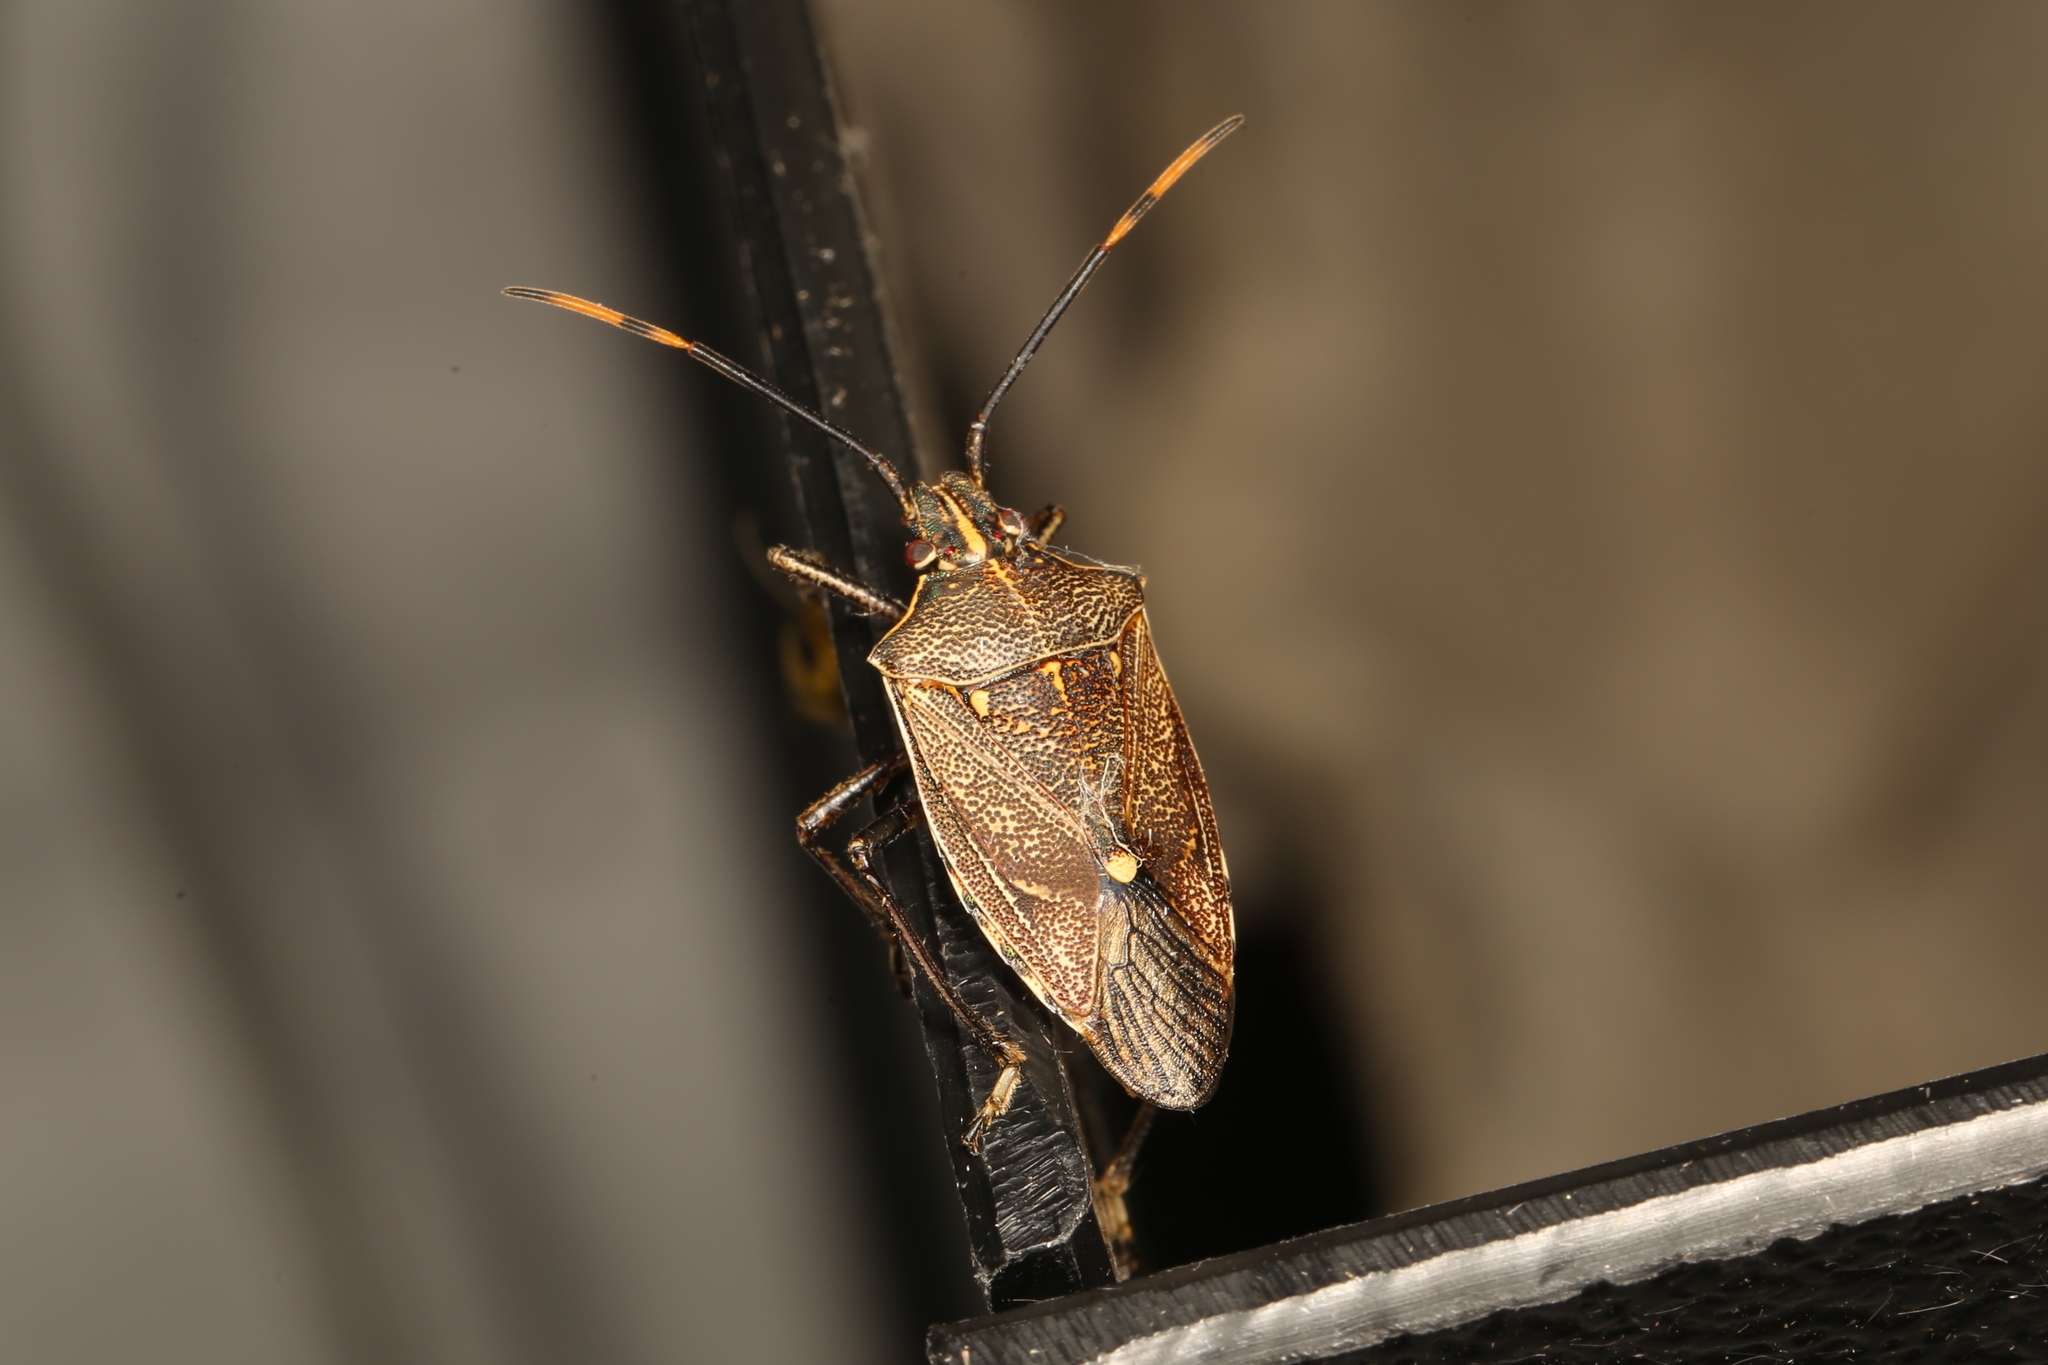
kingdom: Animalia
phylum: Arthropoda
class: Insecta
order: Hemiptera
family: Pentatomidae
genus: Omyta
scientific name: Omyta centrolineata
